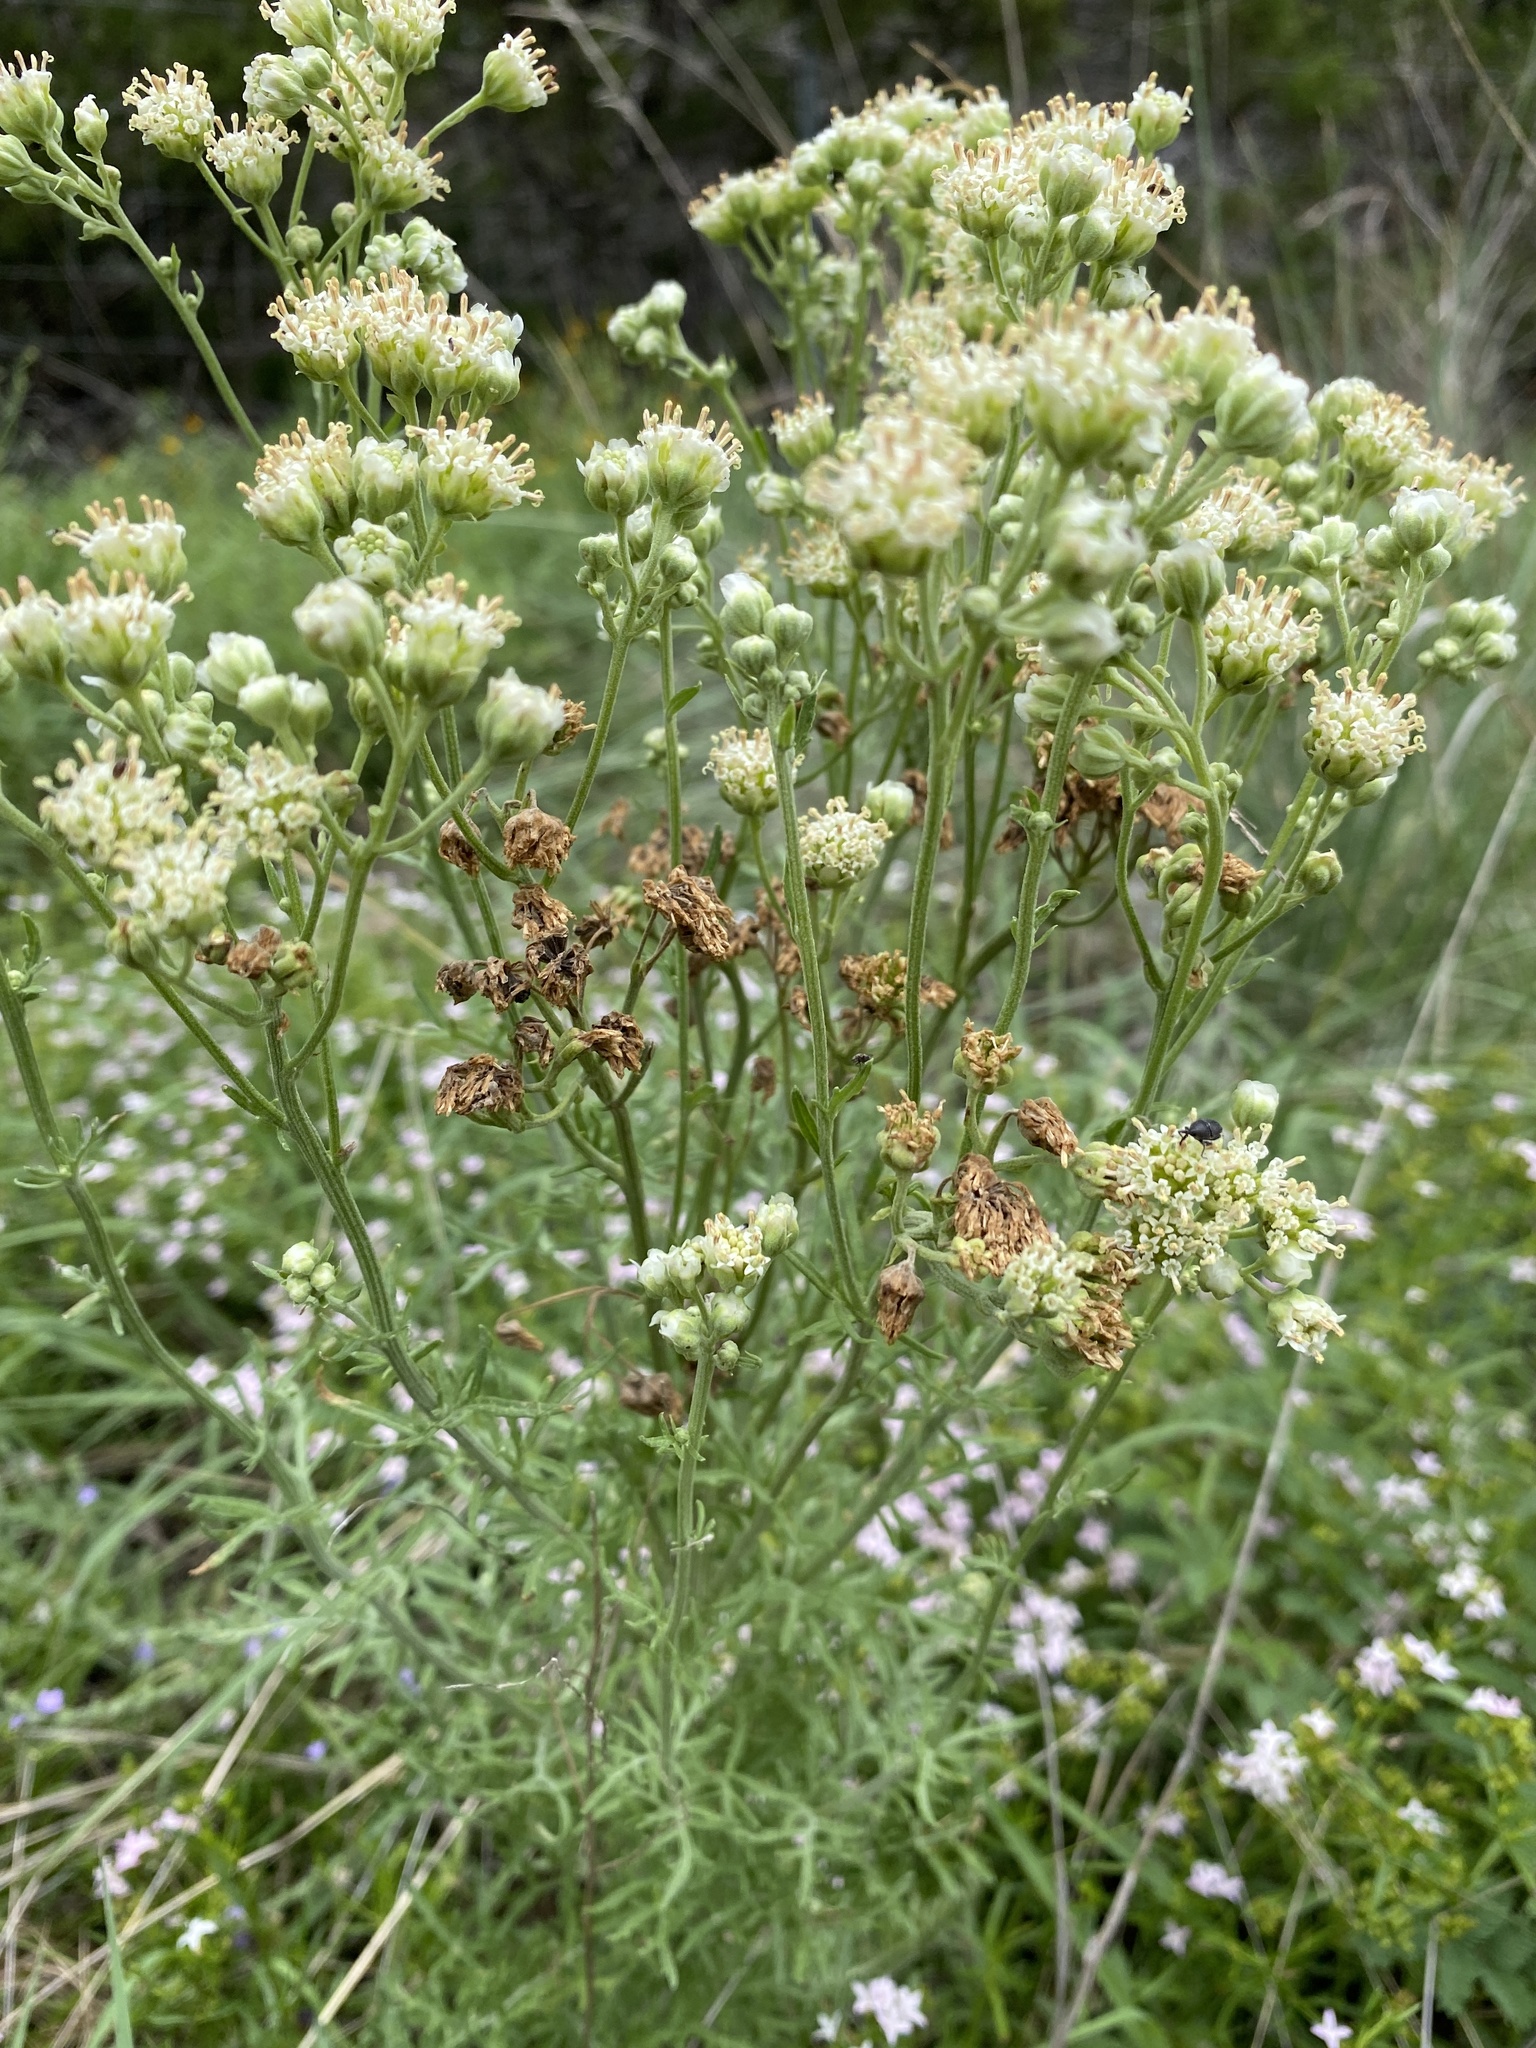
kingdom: Plantae
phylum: Tracheophyta
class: Magnoliopsida
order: Asterales
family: Asteraceae
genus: Hymenopappus
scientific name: Hymenopappus scabiosaeus
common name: Carolina woollywhite
